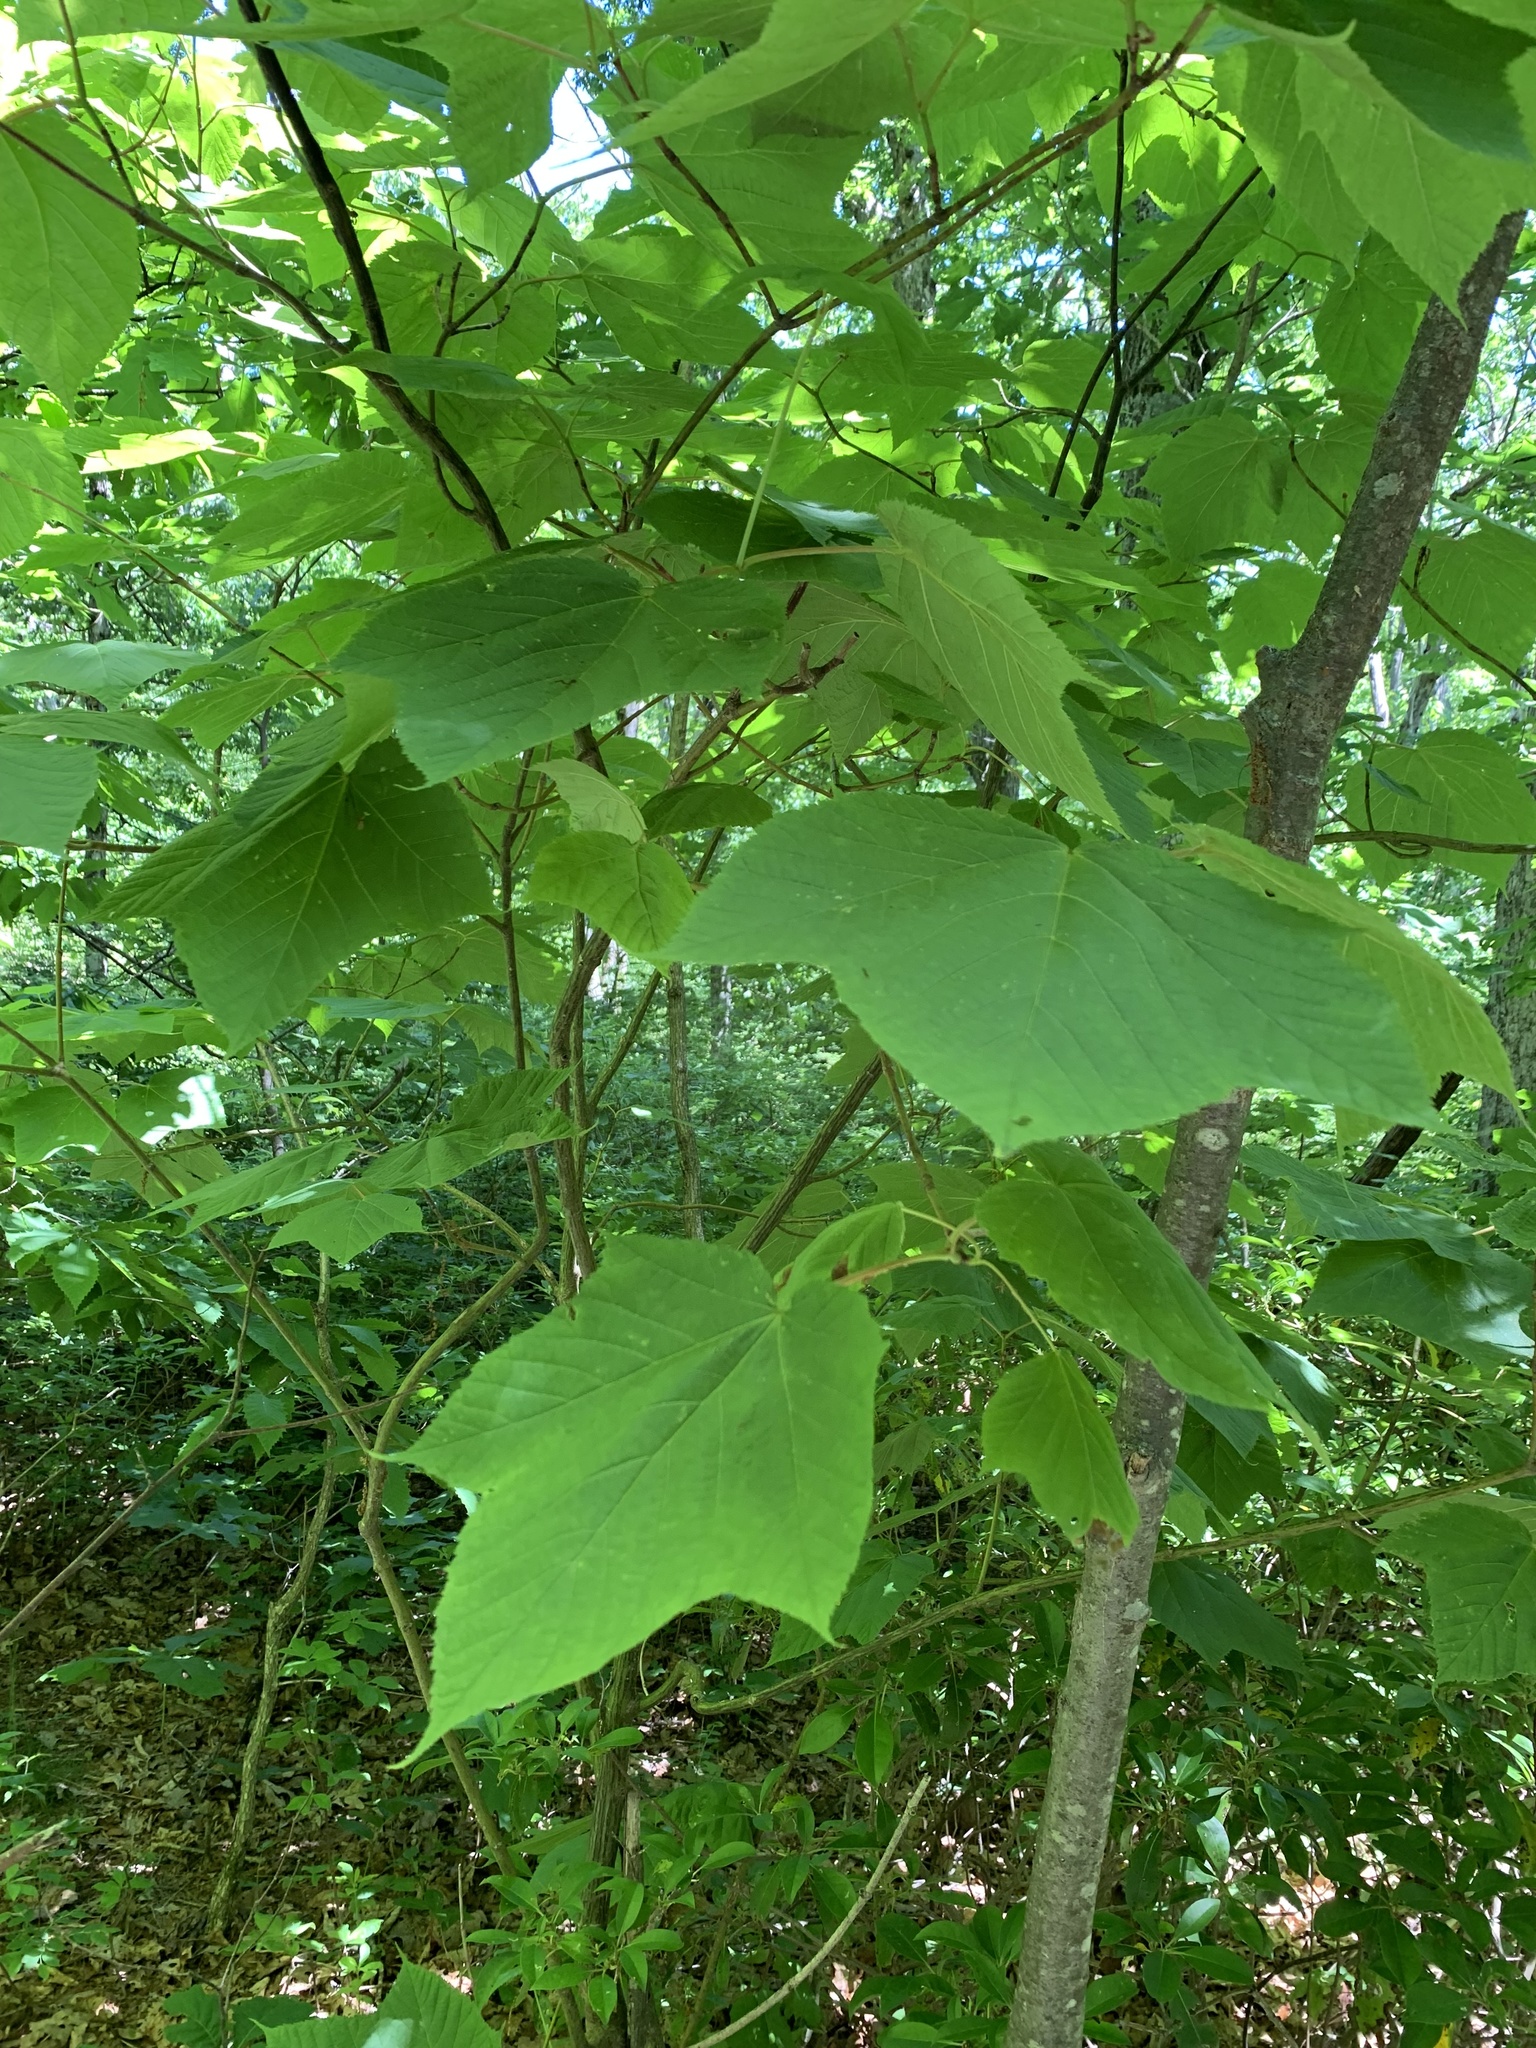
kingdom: Plantae
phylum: Tracheophyta
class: Magnoliopsida
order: Sapindales
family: Sapindaceae
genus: Acer
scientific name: Acer pensylvanicum
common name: Moosewood
